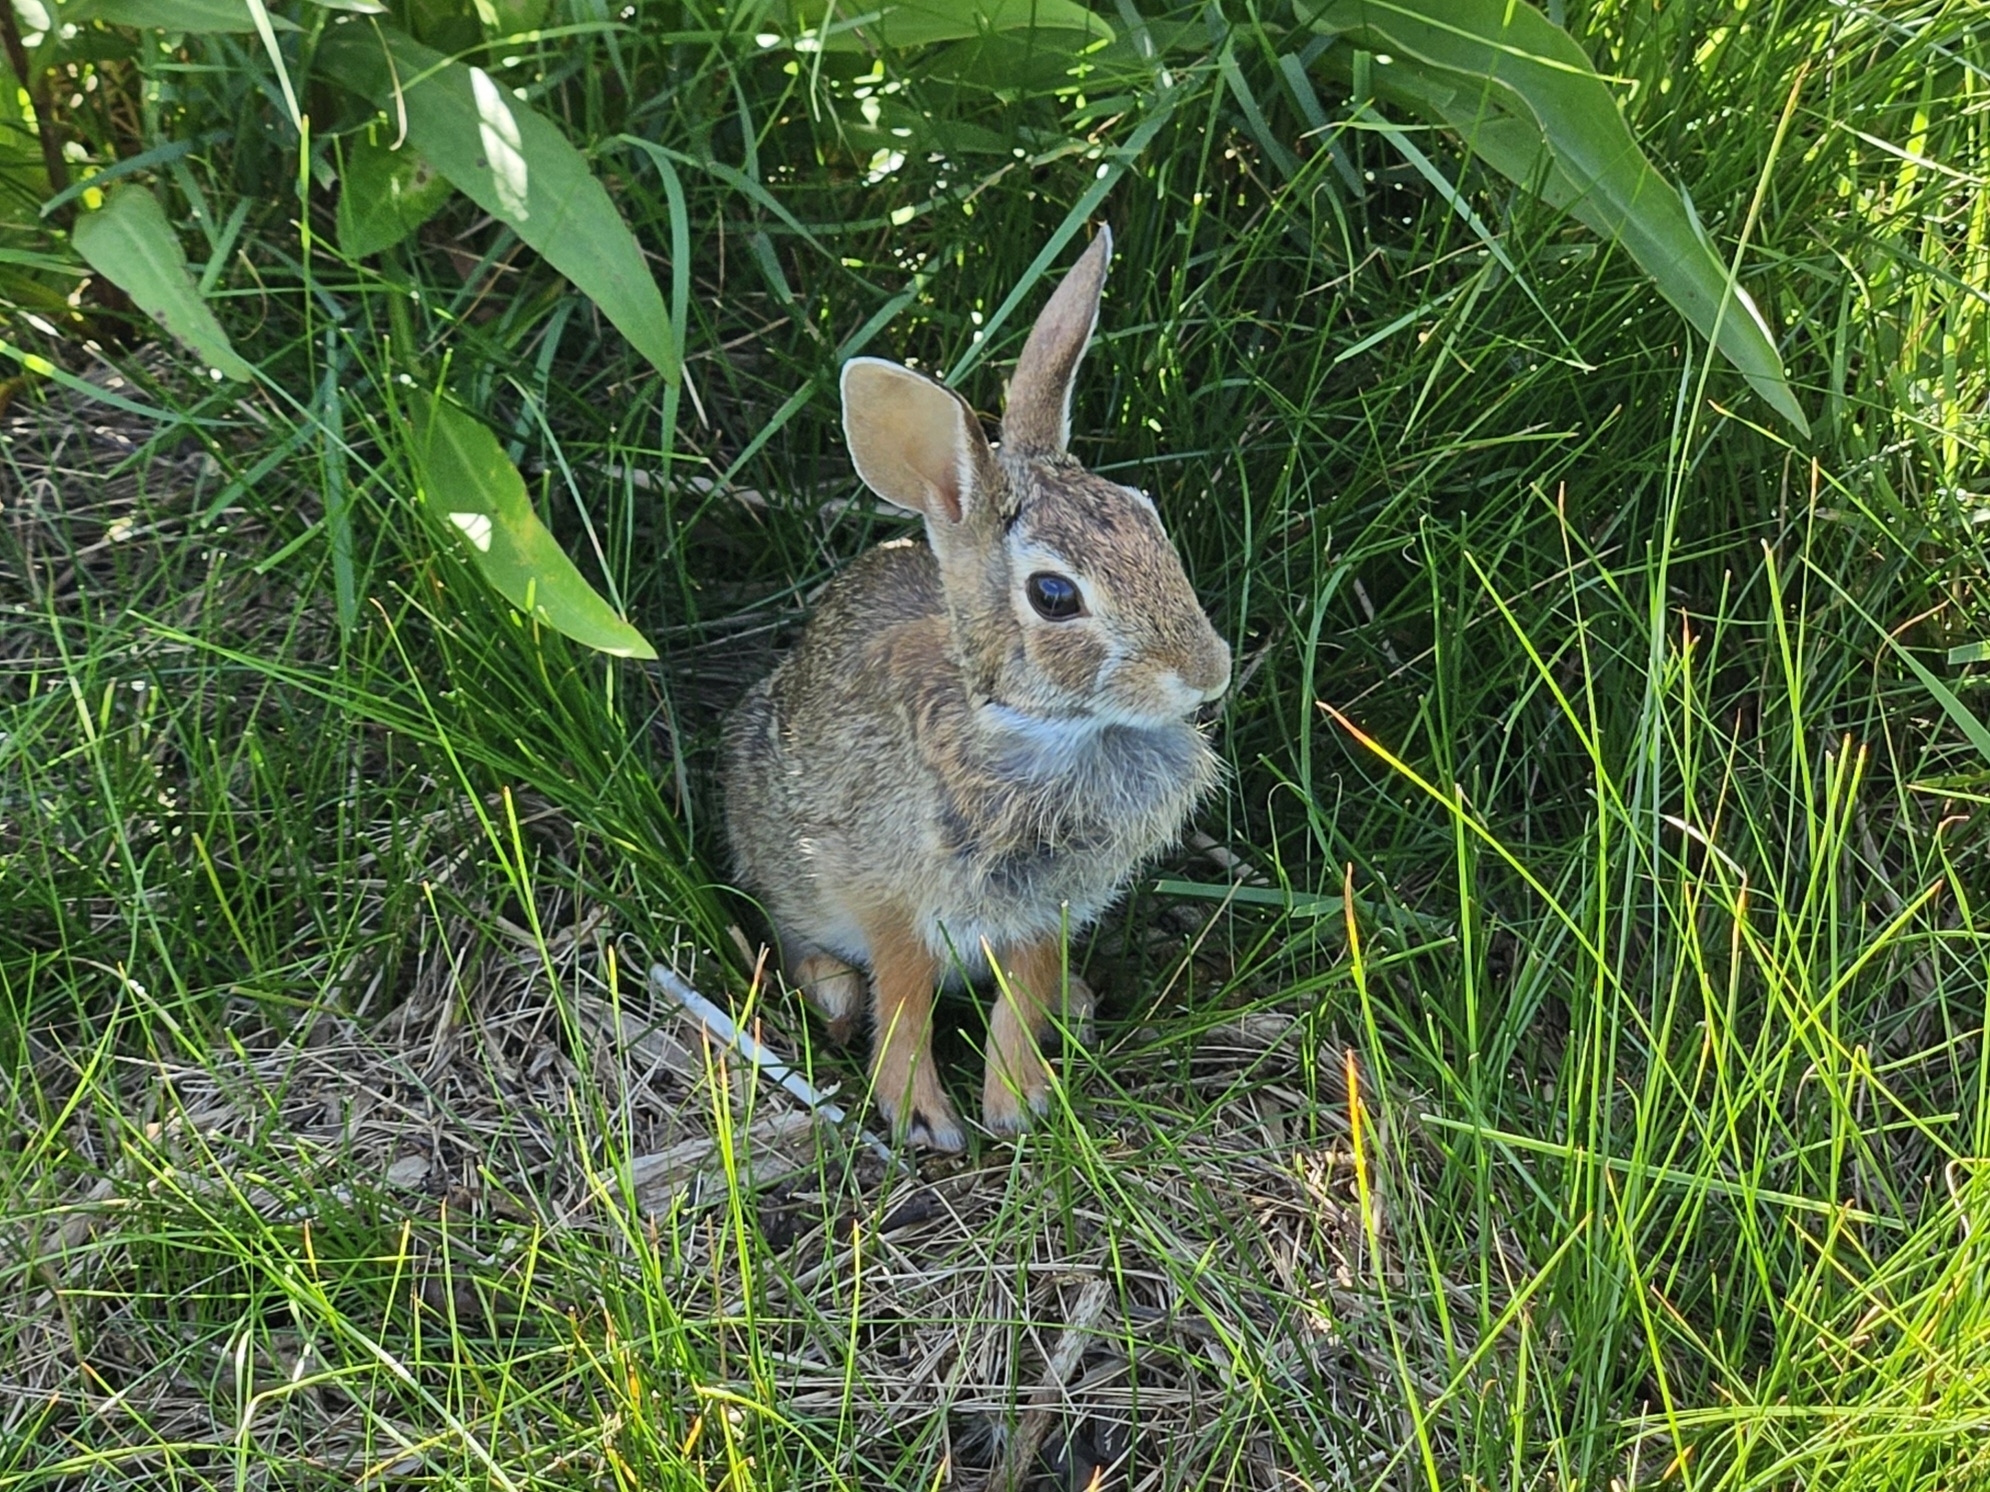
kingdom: Animalia
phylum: Chordata
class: Mammalia
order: Lagomorpha
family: Leporidae
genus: Sylvilagus
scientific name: Sylvilagus floridanus
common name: Eastern cottontail
